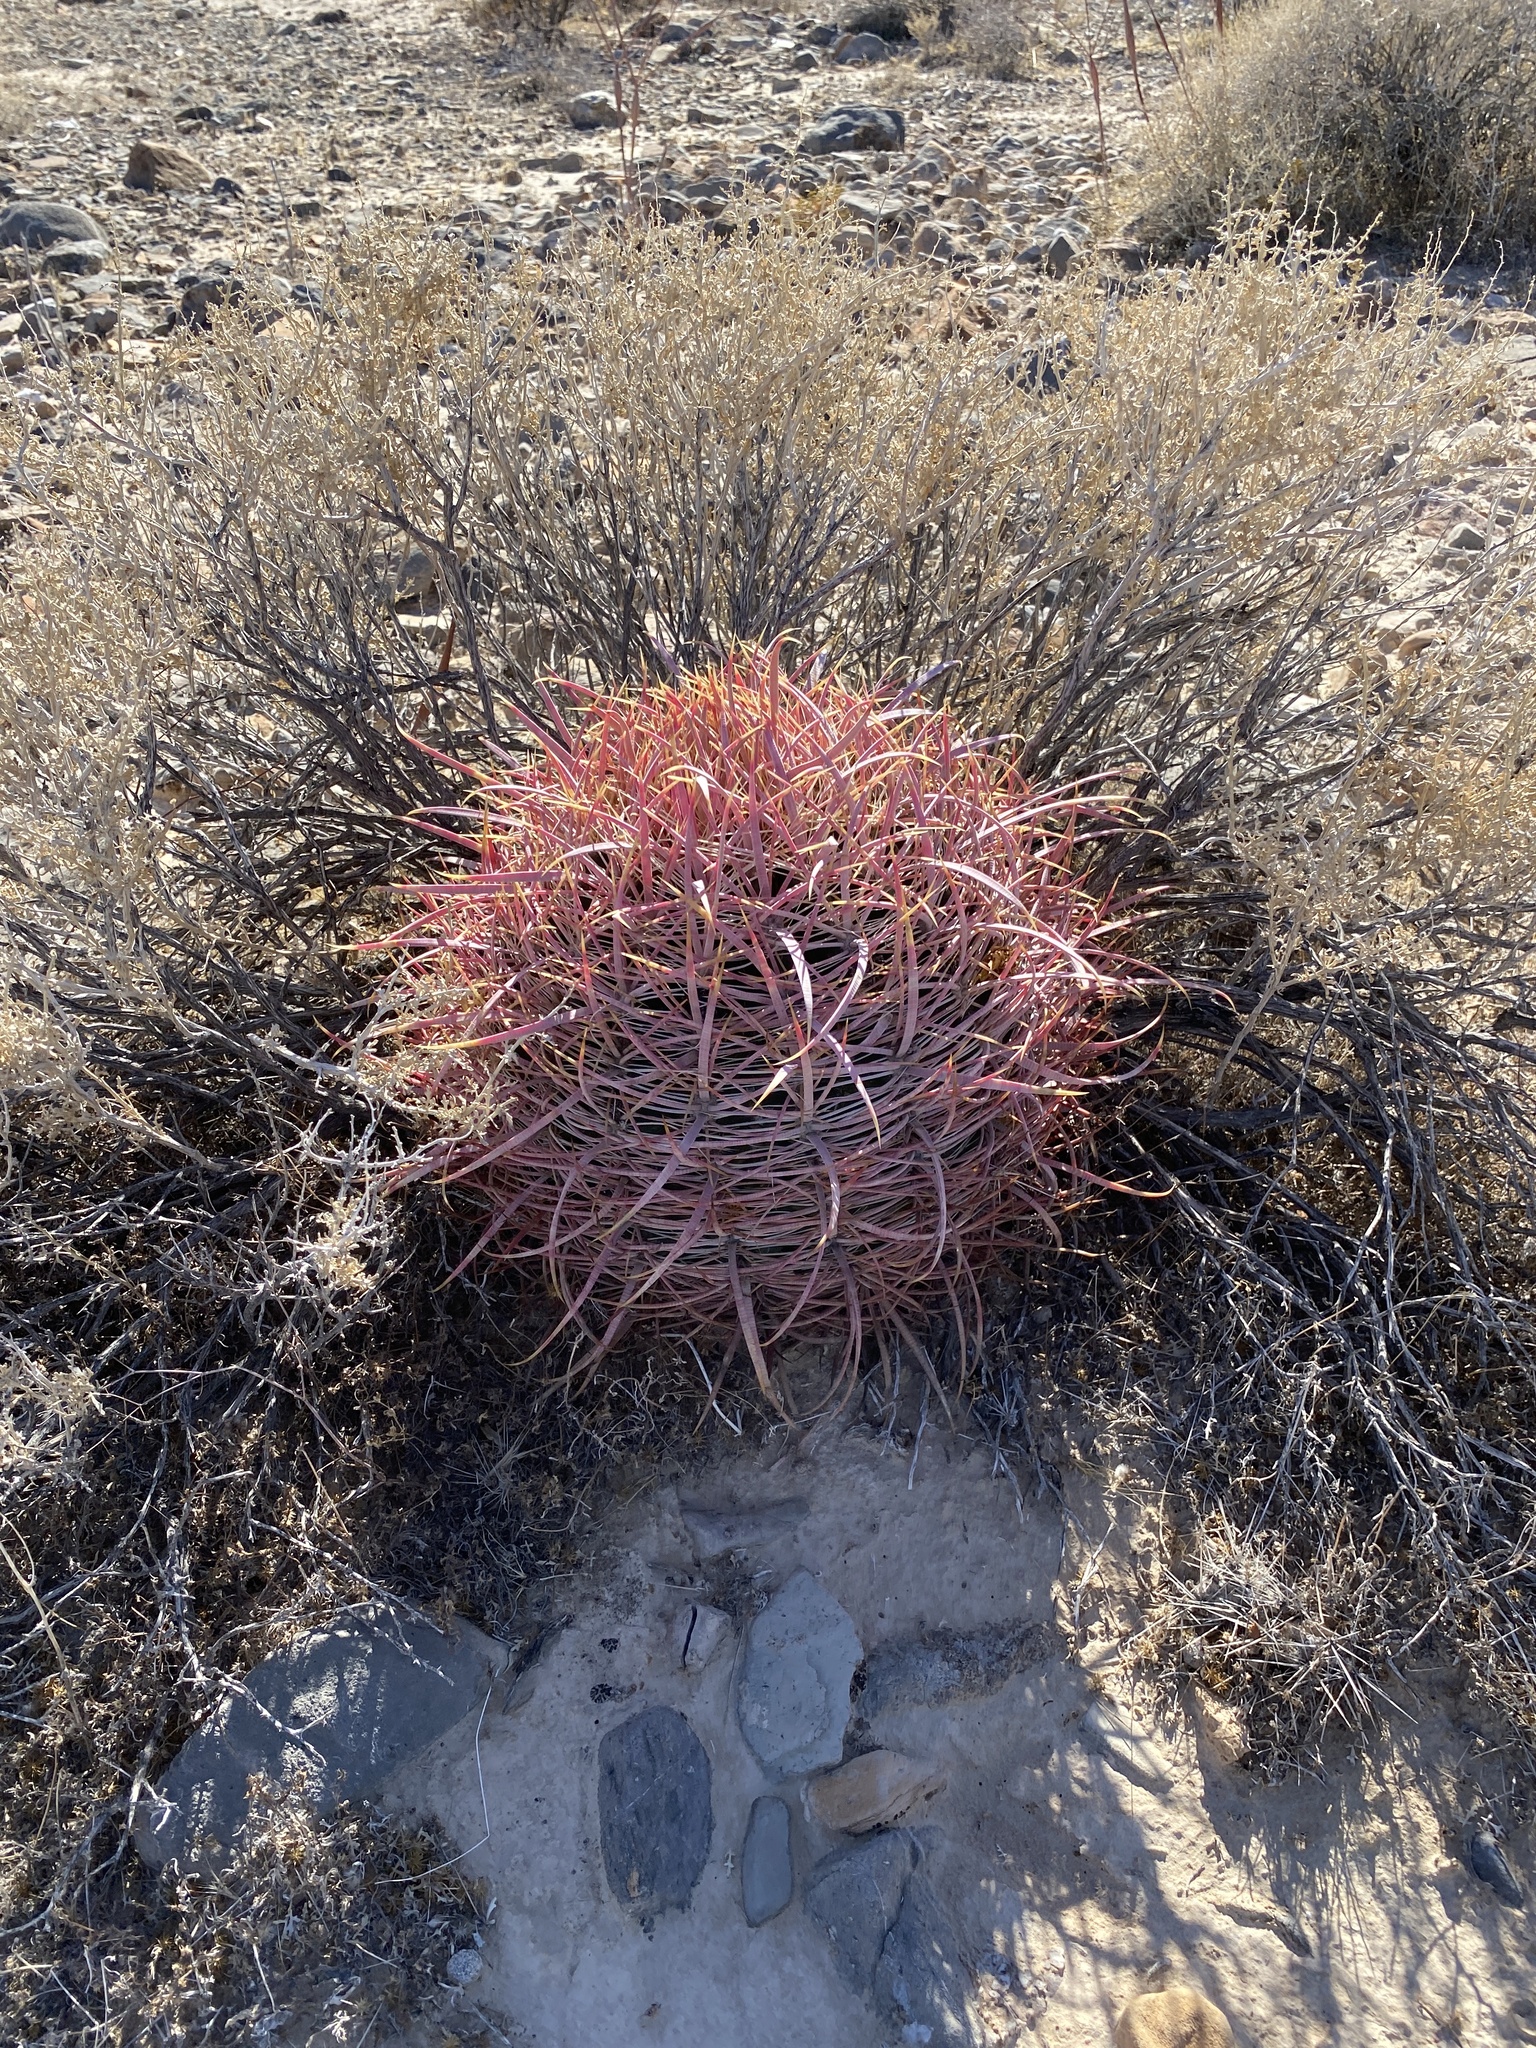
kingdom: Plantae
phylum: Tracheophyta
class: Magnoliopsida
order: Caryophyllales
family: Cactaceae
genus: Ferocactus
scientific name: Ferocactus cylindraceus
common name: California barrel cactus
